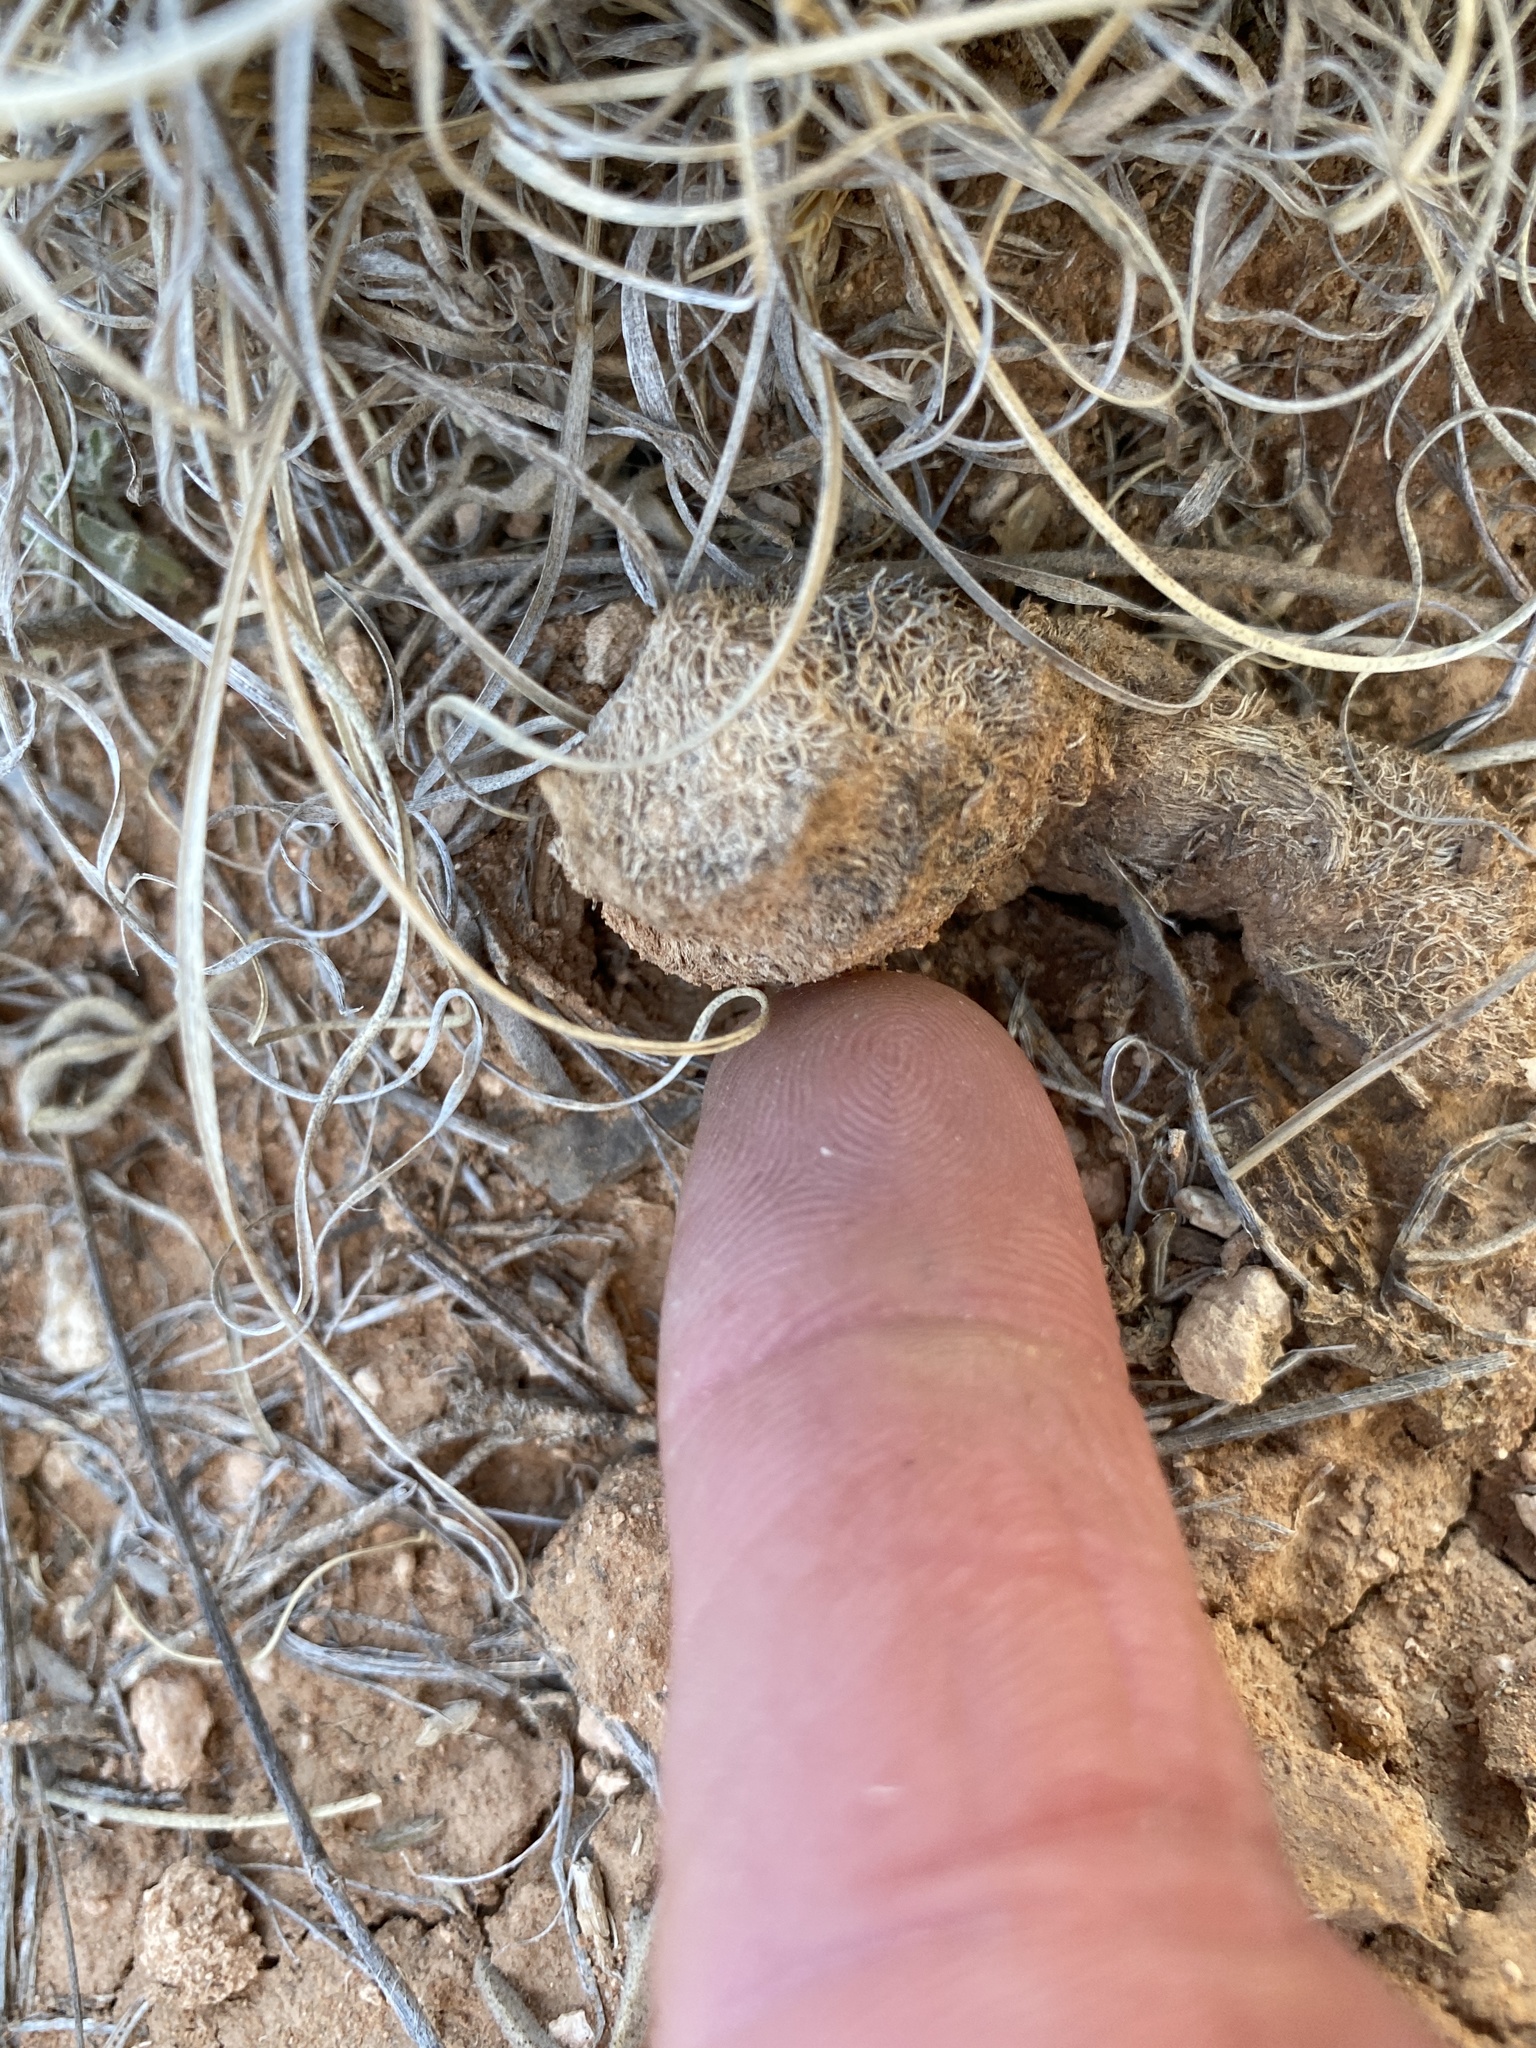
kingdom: Plantae
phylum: Tracheophyta
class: Magnoliopsida
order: Caryophyllales
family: Cactaceae
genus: Echinocereus
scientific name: Echinocereus reichenbachii
